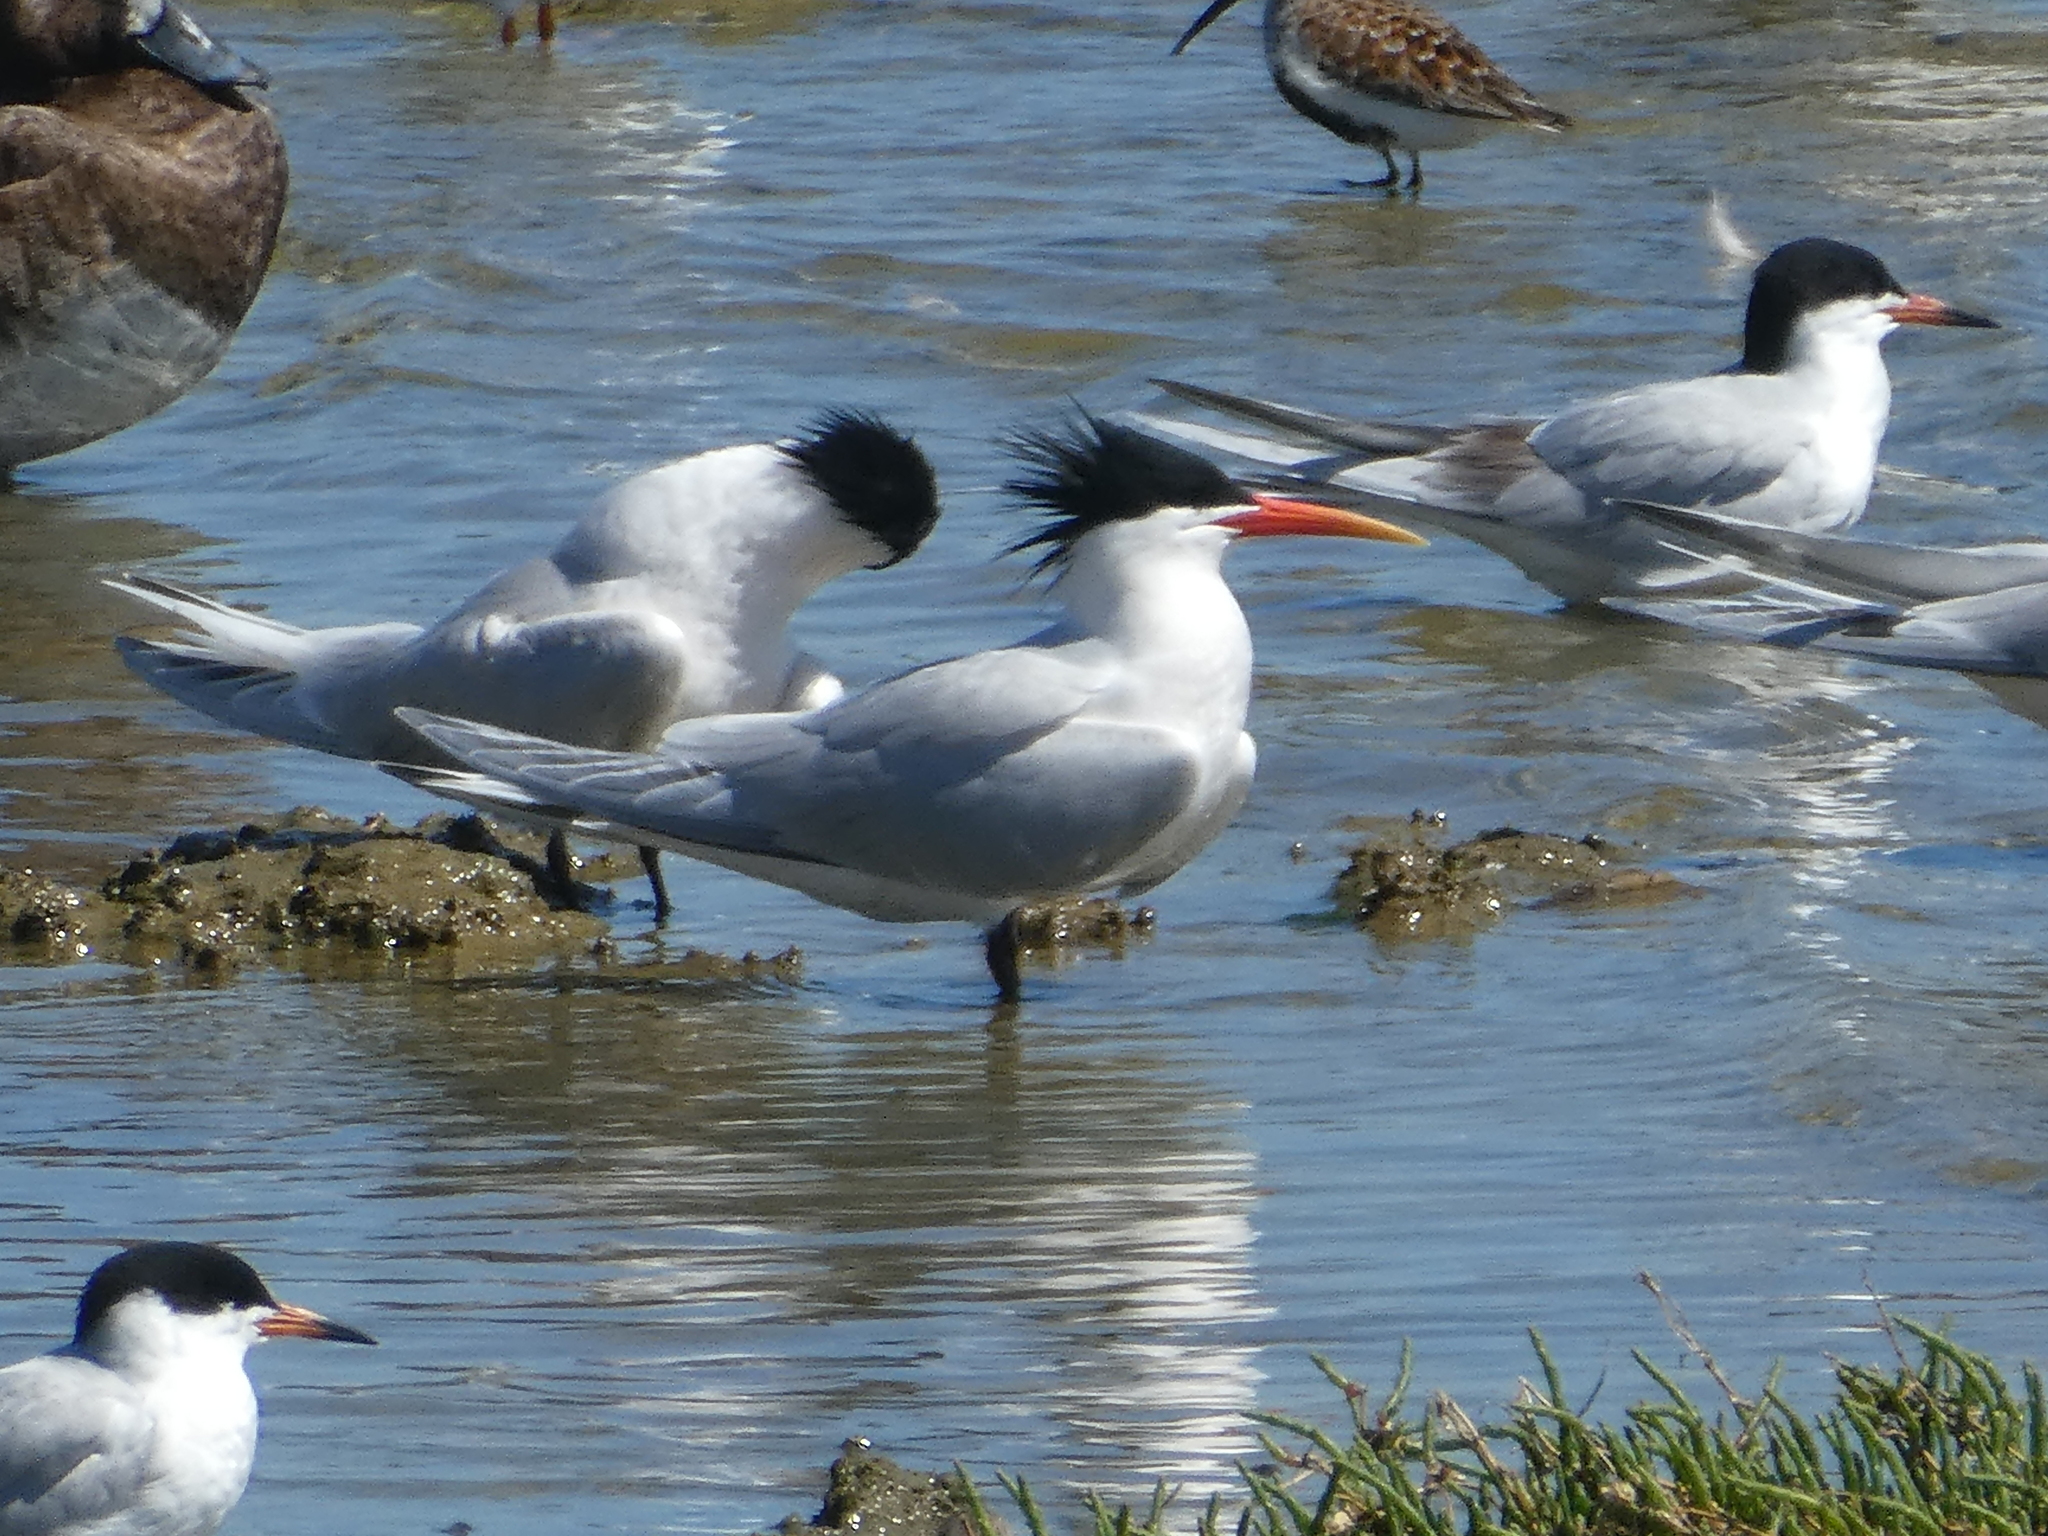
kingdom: Animalia
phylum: Chordata
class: Aves
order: Charadriiformes
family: Laridae
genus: Thalasseus
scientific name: Thalasseus elegans
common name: Elegant tern
